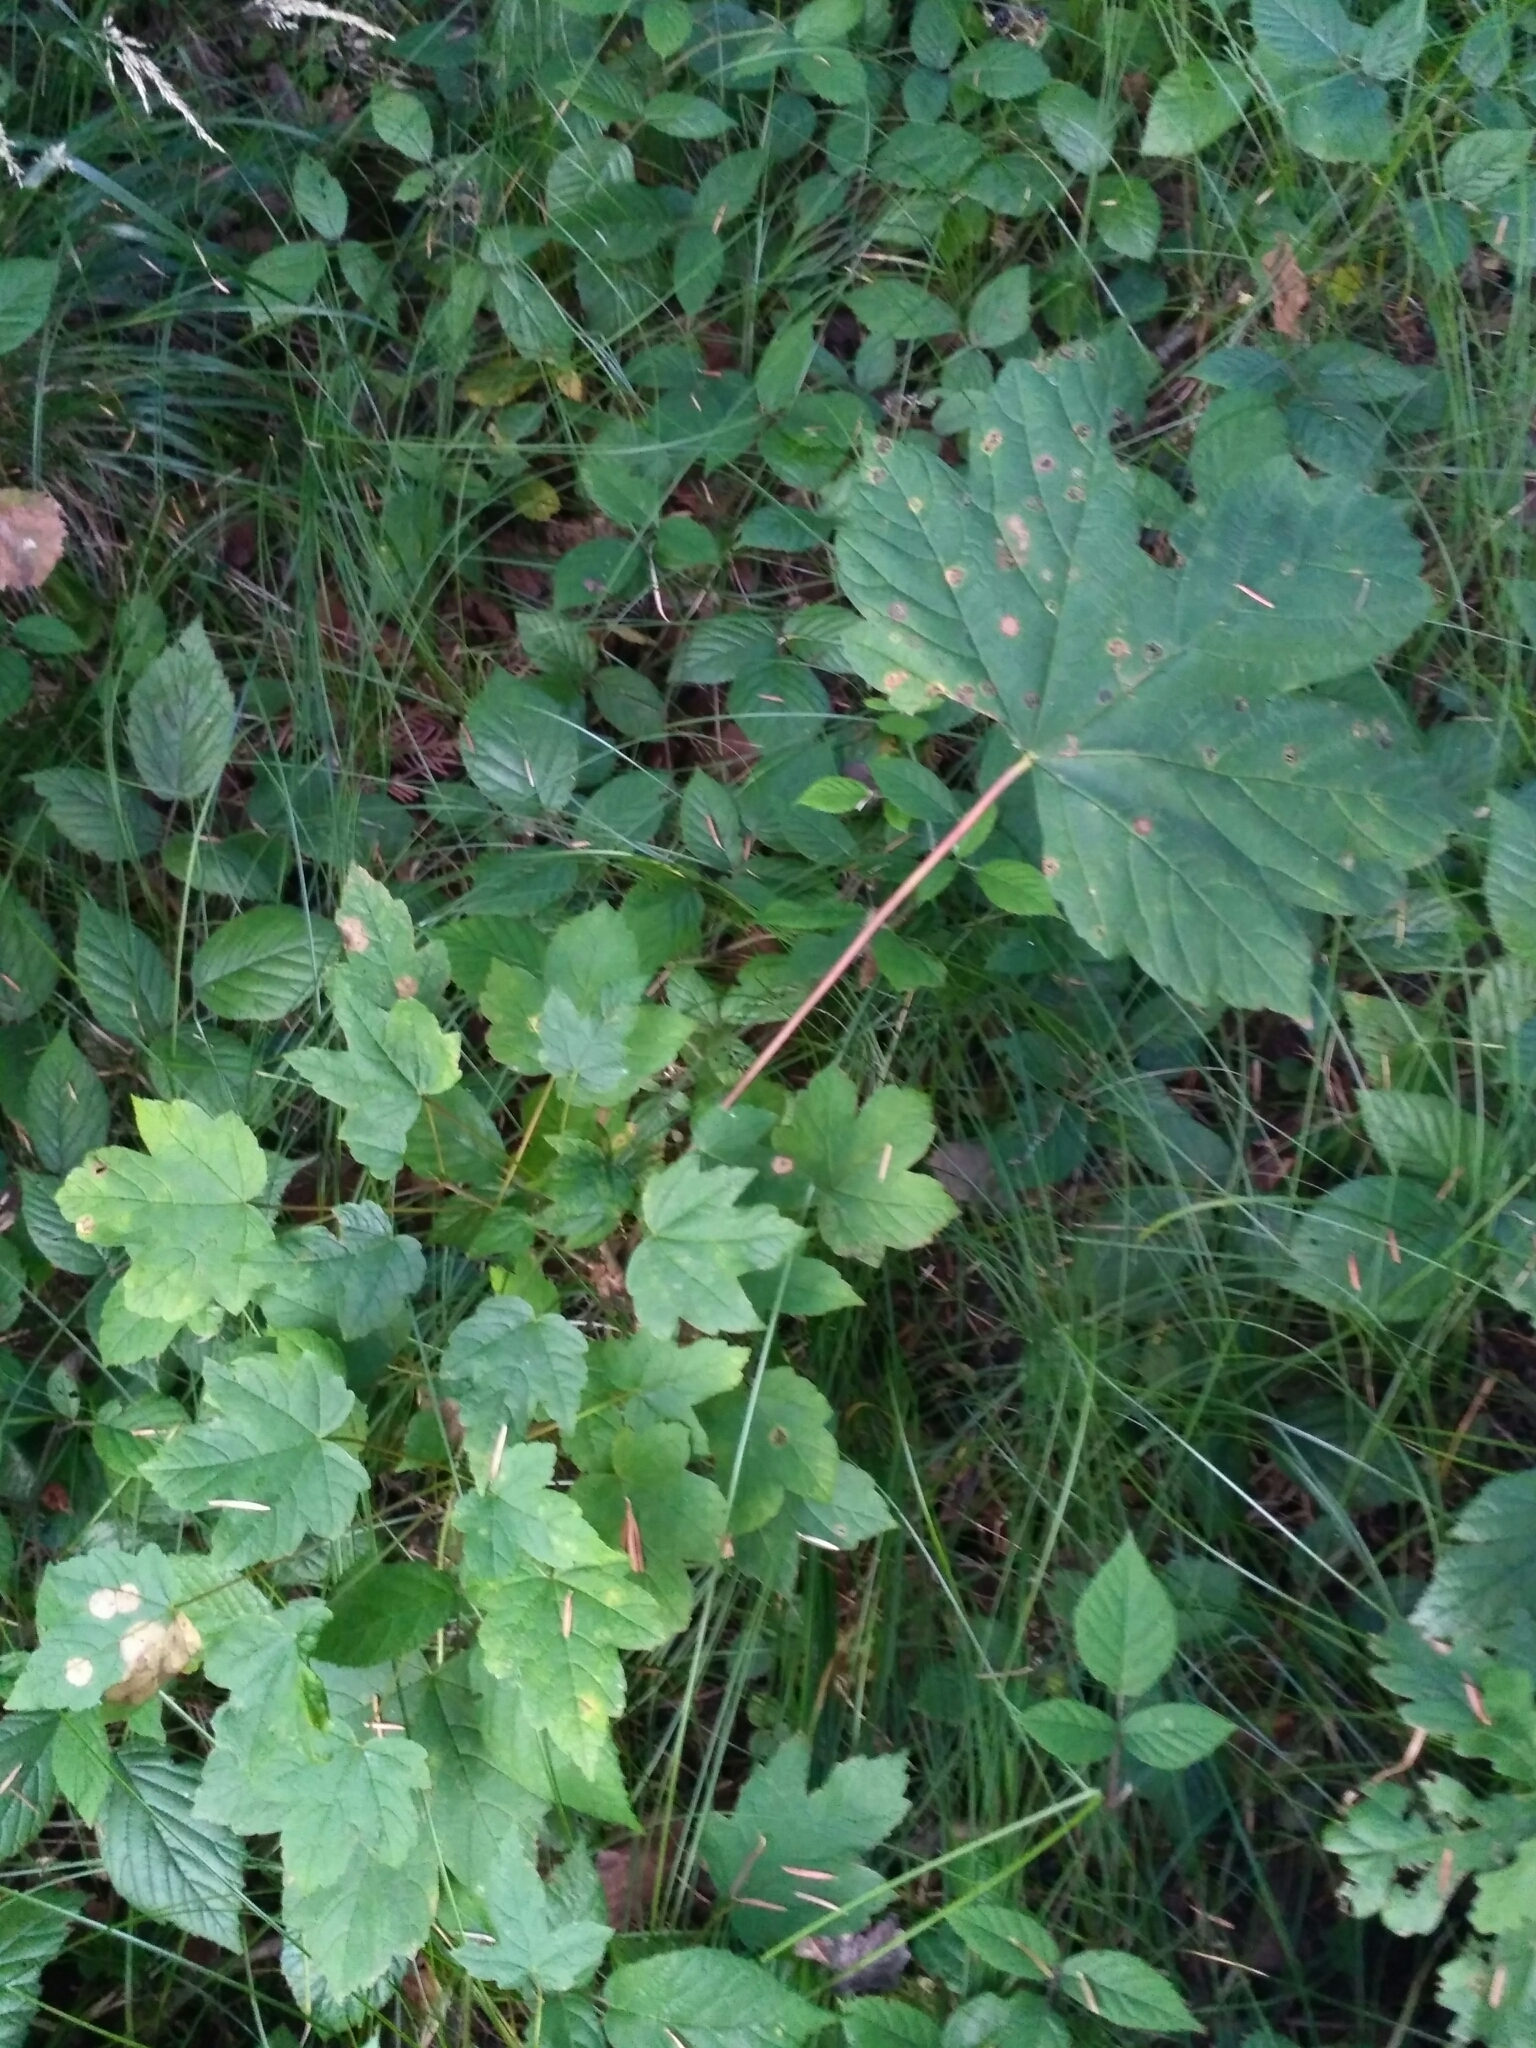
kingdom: Plantae
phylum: Tracheophyta
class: Magnoliopsida
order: Sapindales
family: Sapindaceae
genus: Acer
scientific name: Acer pseudoplatanus
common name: Sycamore
